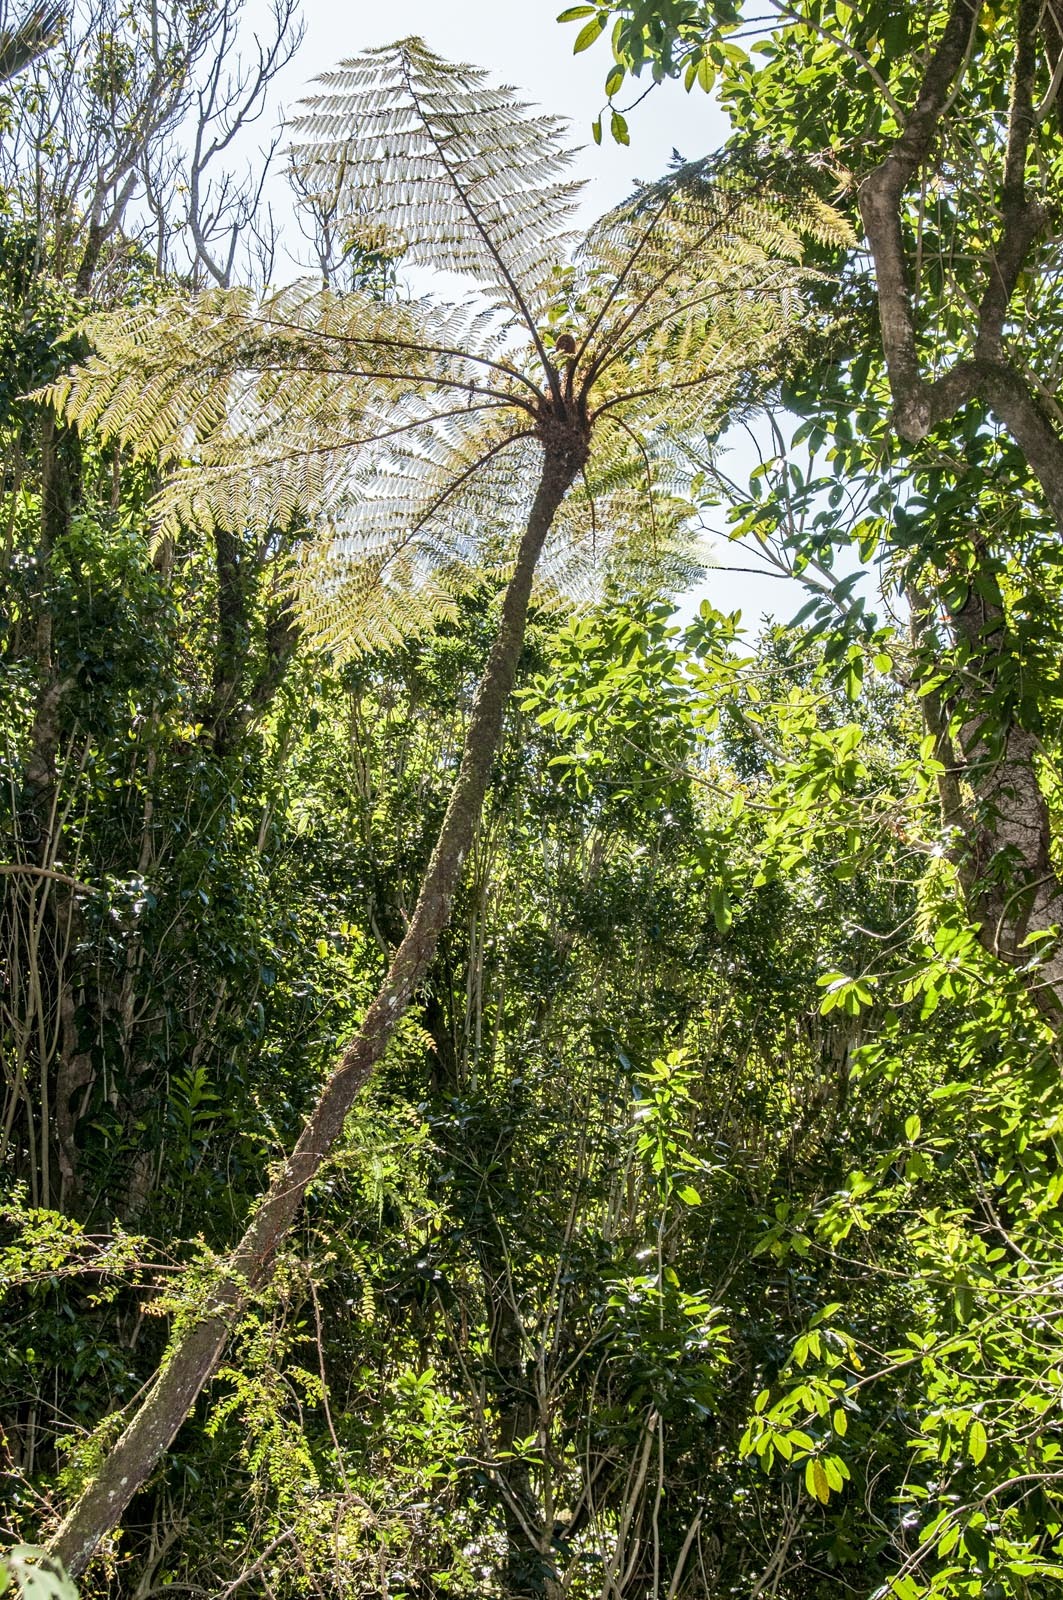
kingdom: Plantae
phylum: Tracheophyta
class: Polypodiopsida
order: Cyatheales
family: Cyatheaceae
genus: Cyathea
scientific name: Cyathea cunninghamii
